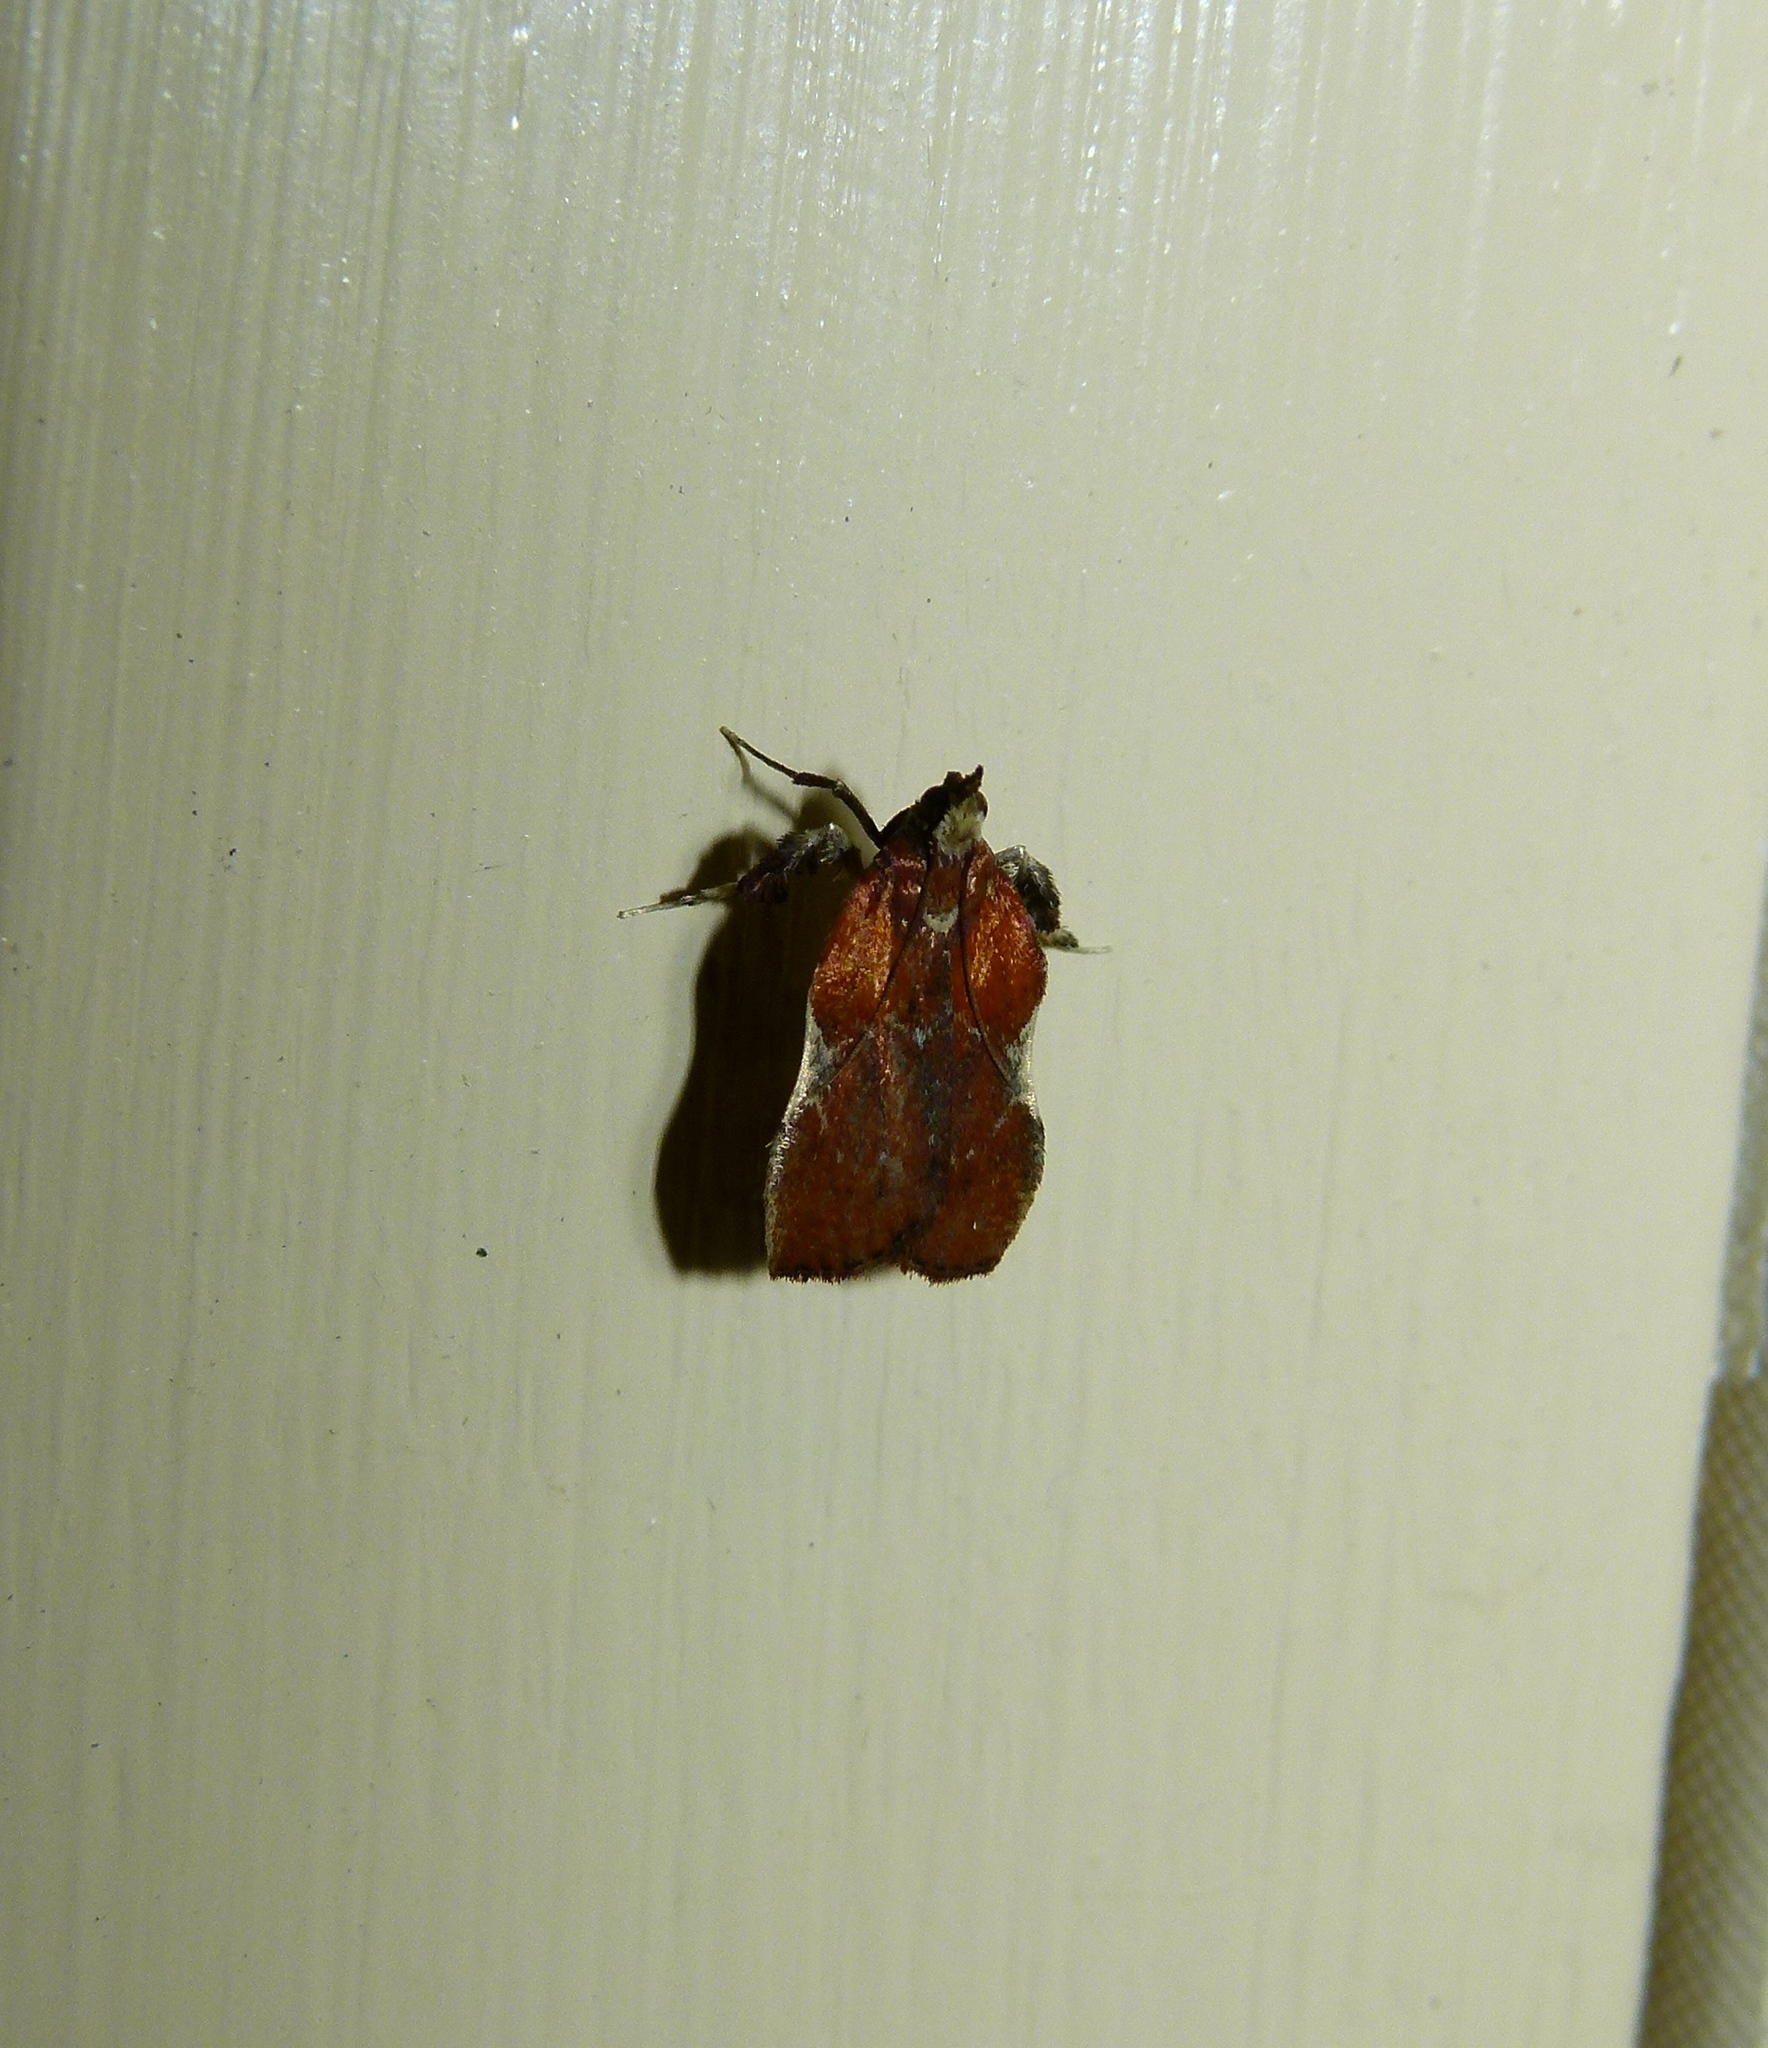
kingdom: Animalia
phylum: Arthropoda
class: Insecta
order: Lepidoptera
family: Pyralidae
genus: Galasa
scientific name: Galasa nigrinodis
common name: Boxwood leaftier moth
